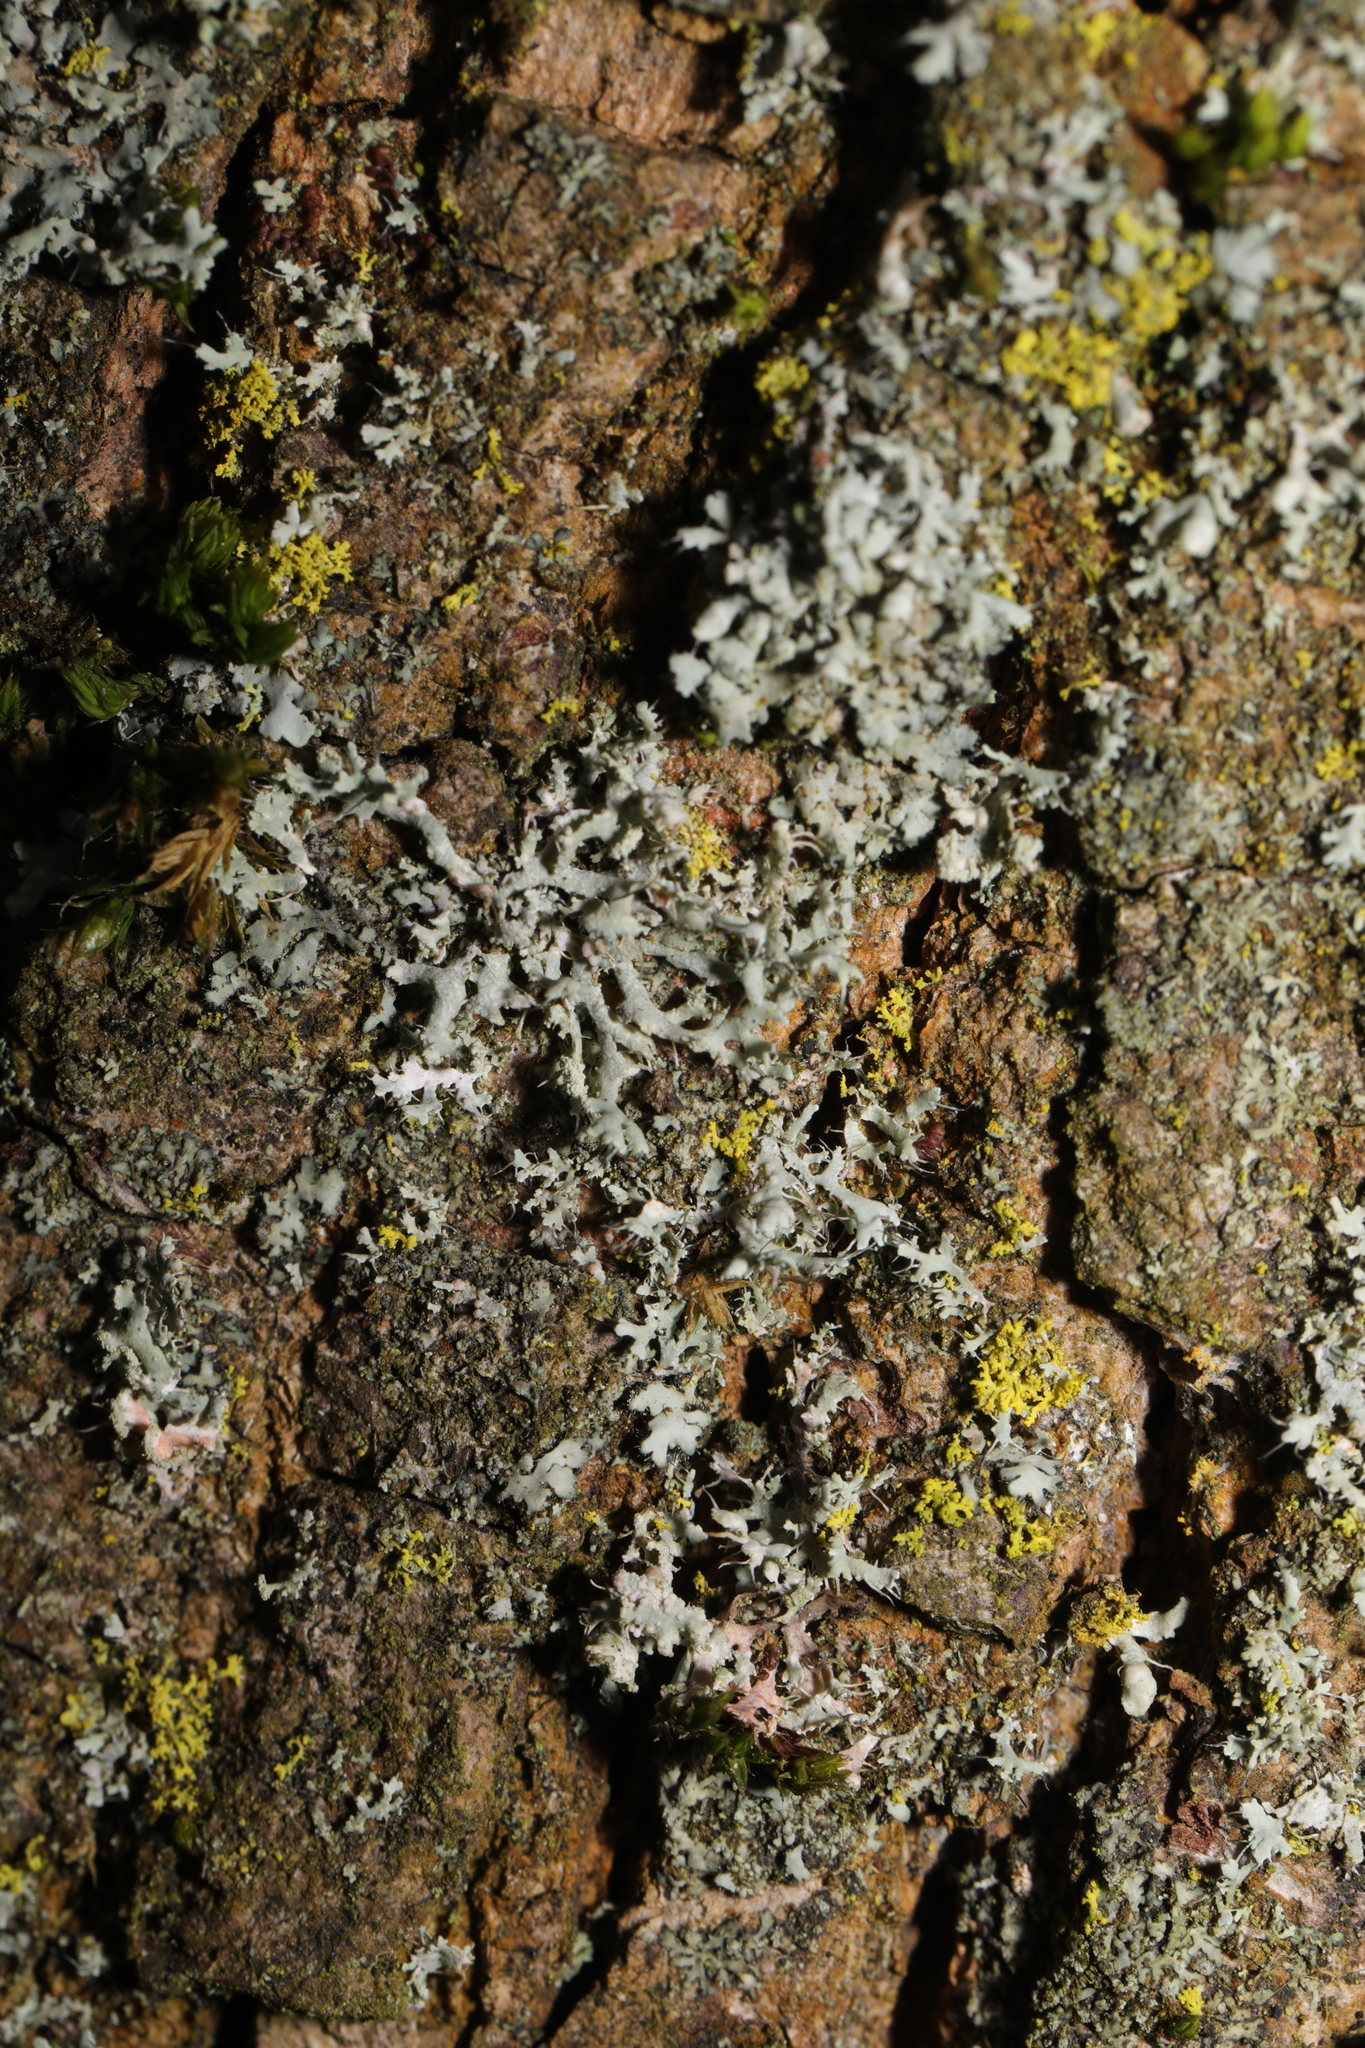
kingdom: Fungi
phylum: Ascomycota
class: Lecanoromycetes
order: Caliciales
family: Physciaceae
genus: Physcia
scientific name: Physcia adscendens
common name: Hooded rosette lichen
